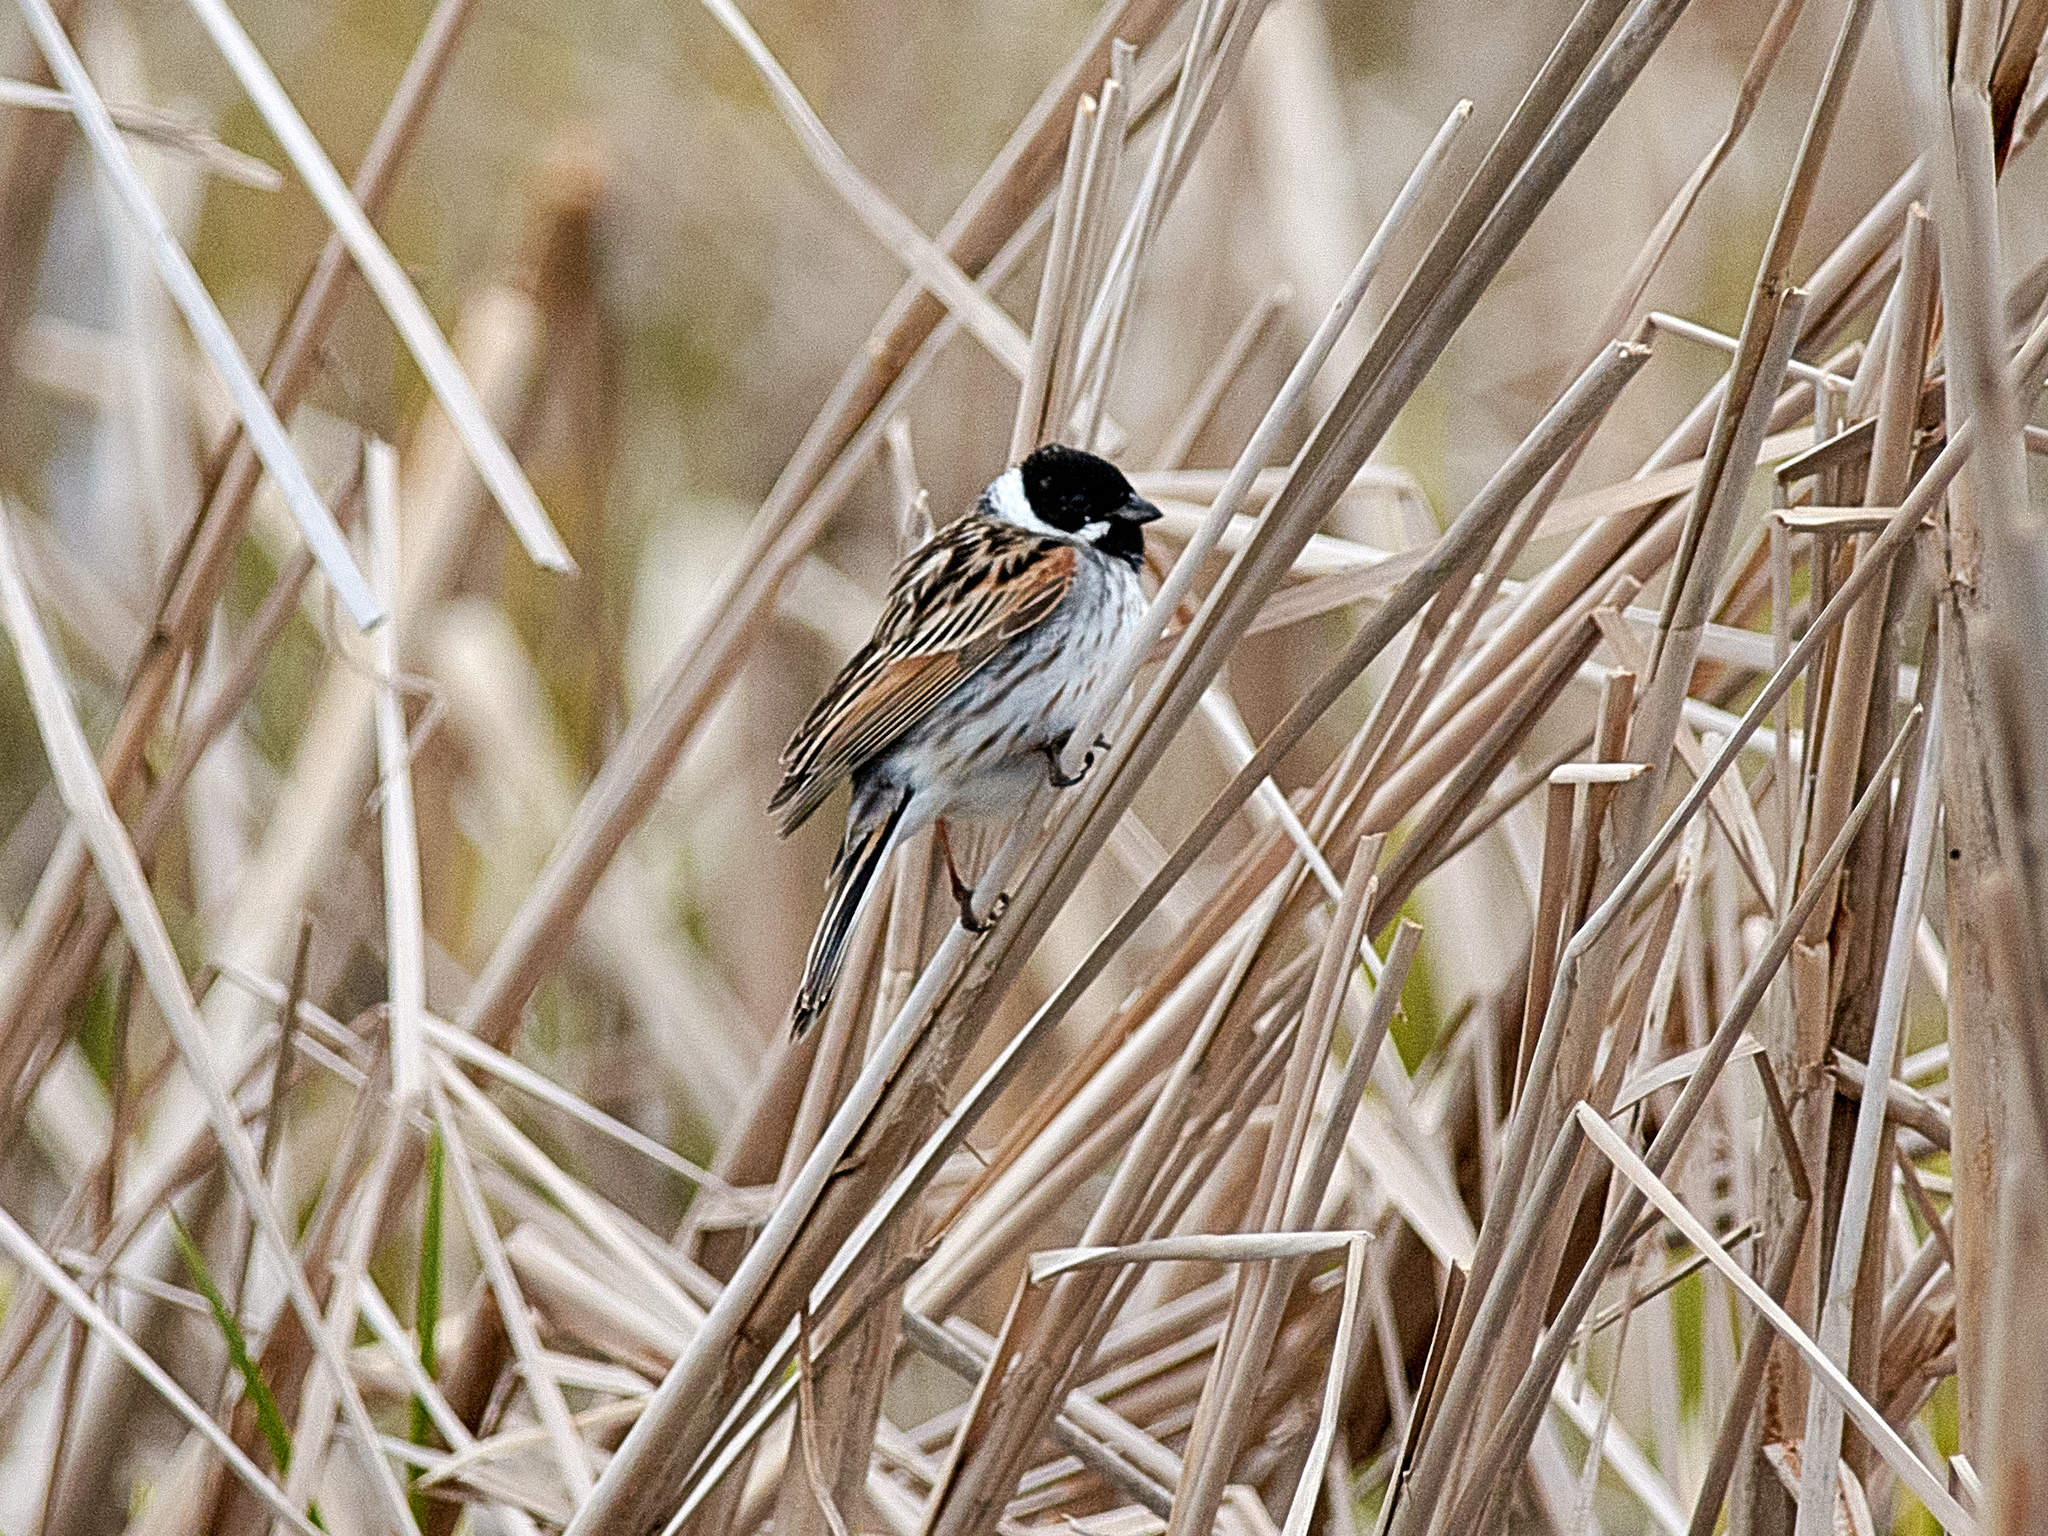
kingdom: Animalia
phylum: Chordata
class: Aves
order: Passeriformes
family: Emberizidae
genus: Emberiza
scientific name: Emberiza schoeniclus
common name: Reed bunting
